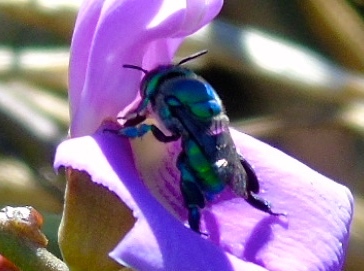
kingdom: Animalia
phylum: Arthropoda
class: Insecta
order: Hymenoptera
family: Apidae
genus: Euglossa
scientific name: Euglossa
